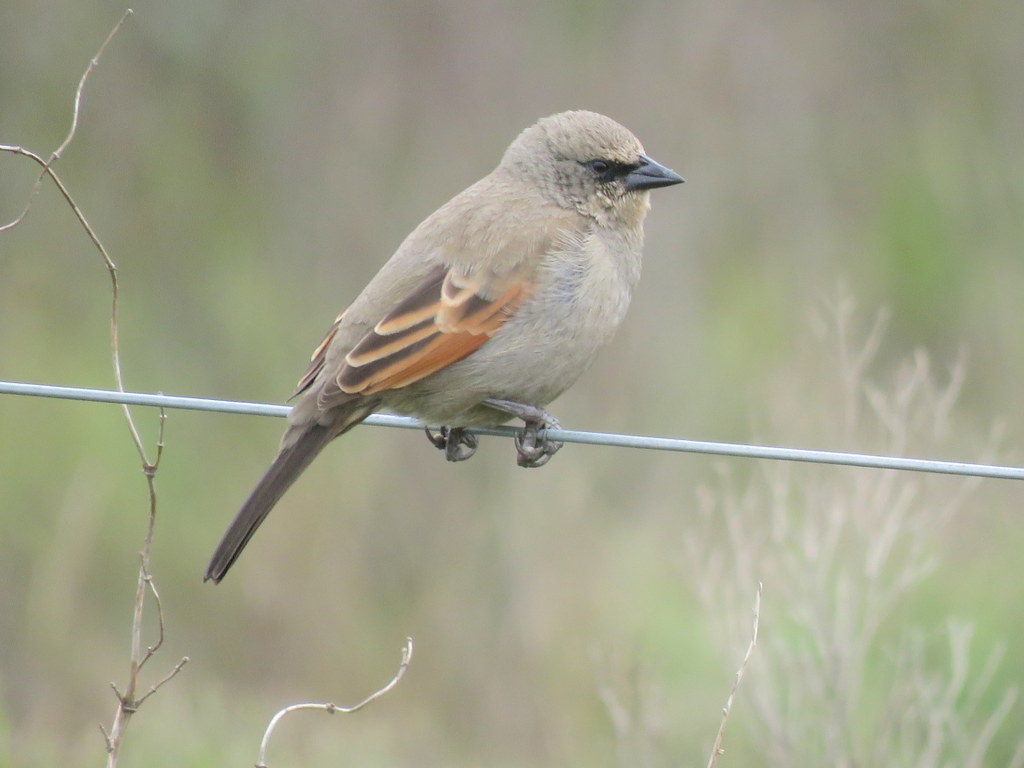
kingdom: Animalia
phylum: Chordata
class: Aves
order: Passeriformes
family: Icteridae
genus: Agelaioides
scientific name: Agelaioides badius
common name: Baywing
